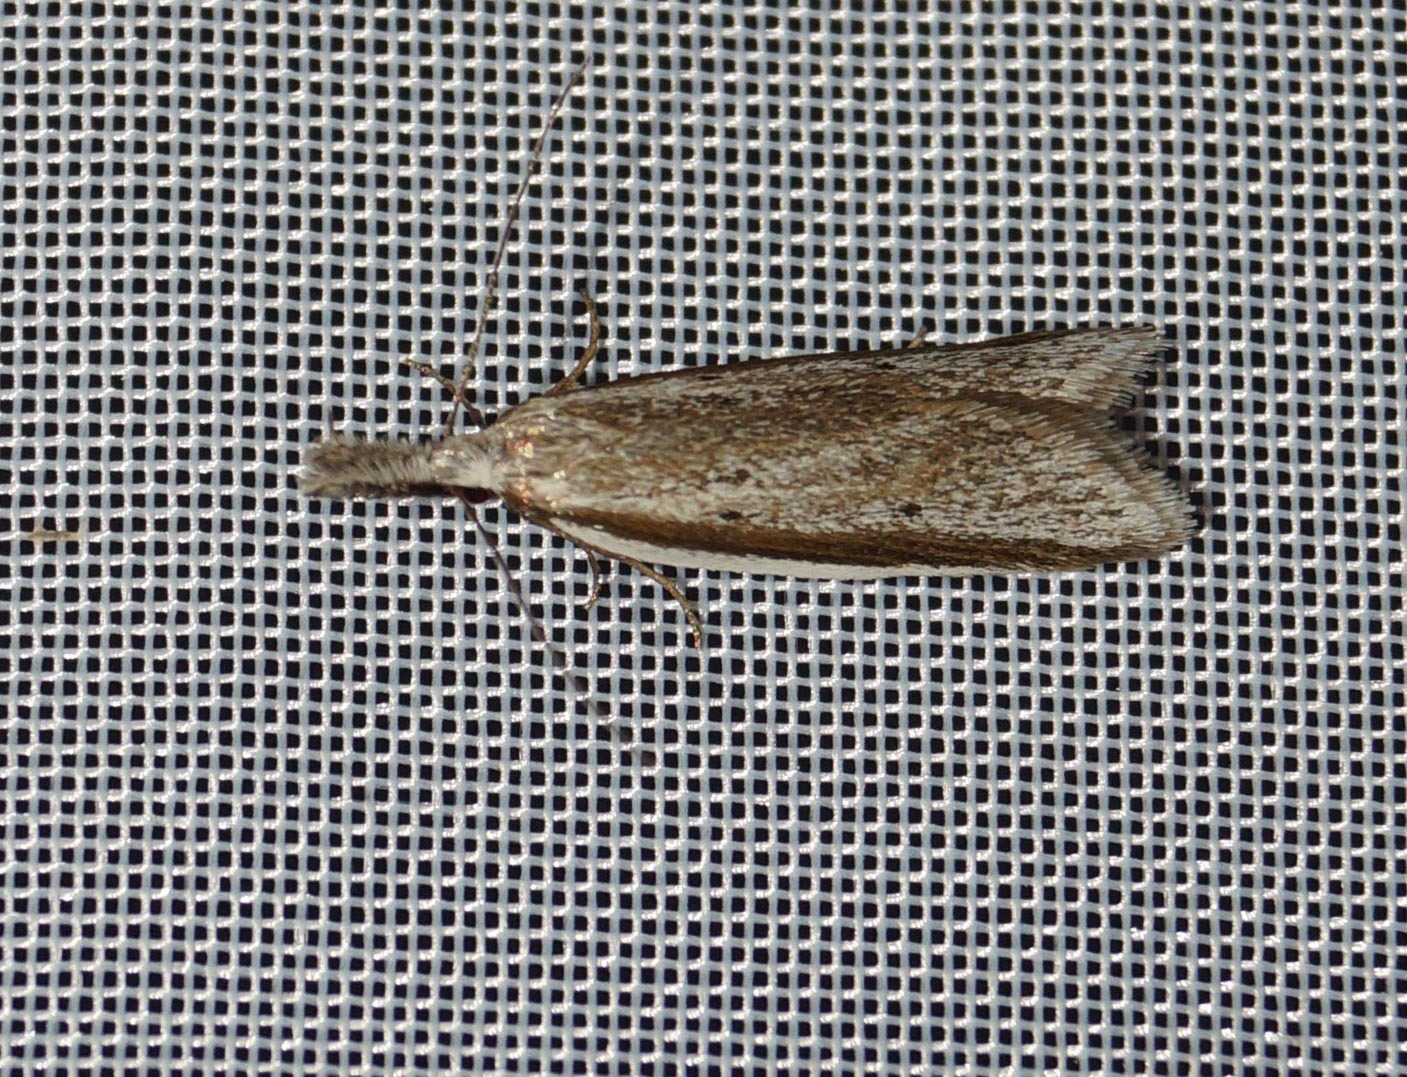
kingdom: Animalia
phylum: Arthropoda
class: Insecta
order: Lepidoptera
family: Oecophoridae
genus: Pleurota
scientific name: Pleurota bicostella
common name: Light streak
